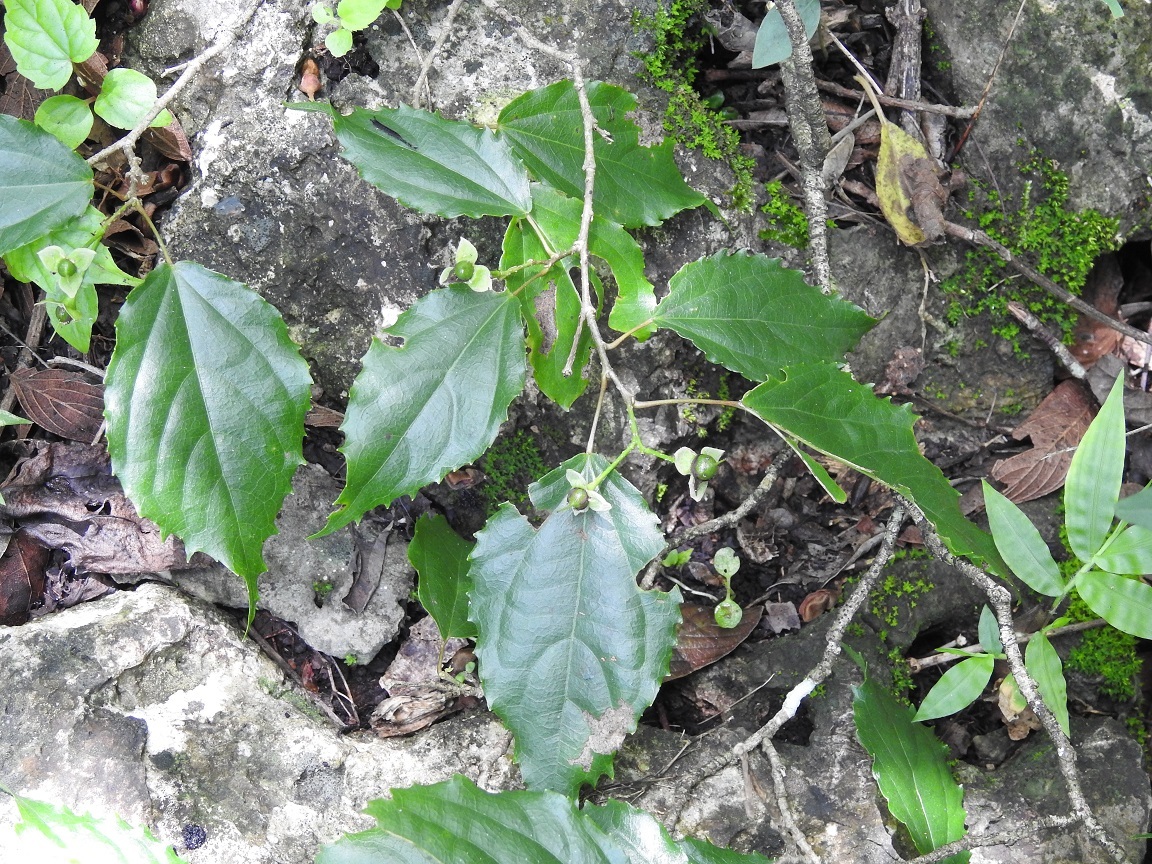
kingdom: Plantae
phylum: Tracheophyta
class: Magnoliopsida
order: Malpighiales
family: Salicaceae
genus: Prockia
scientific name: Prockia crucis
